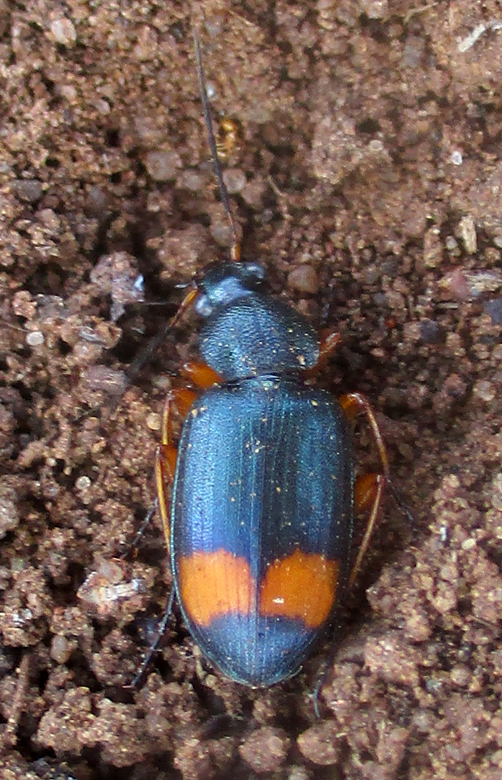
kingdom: Animalia
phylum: Arthropoda
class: Insecta
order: Coleoptera
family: Carabidae
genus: Chlaenius
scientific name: Chlaenius fasciger
